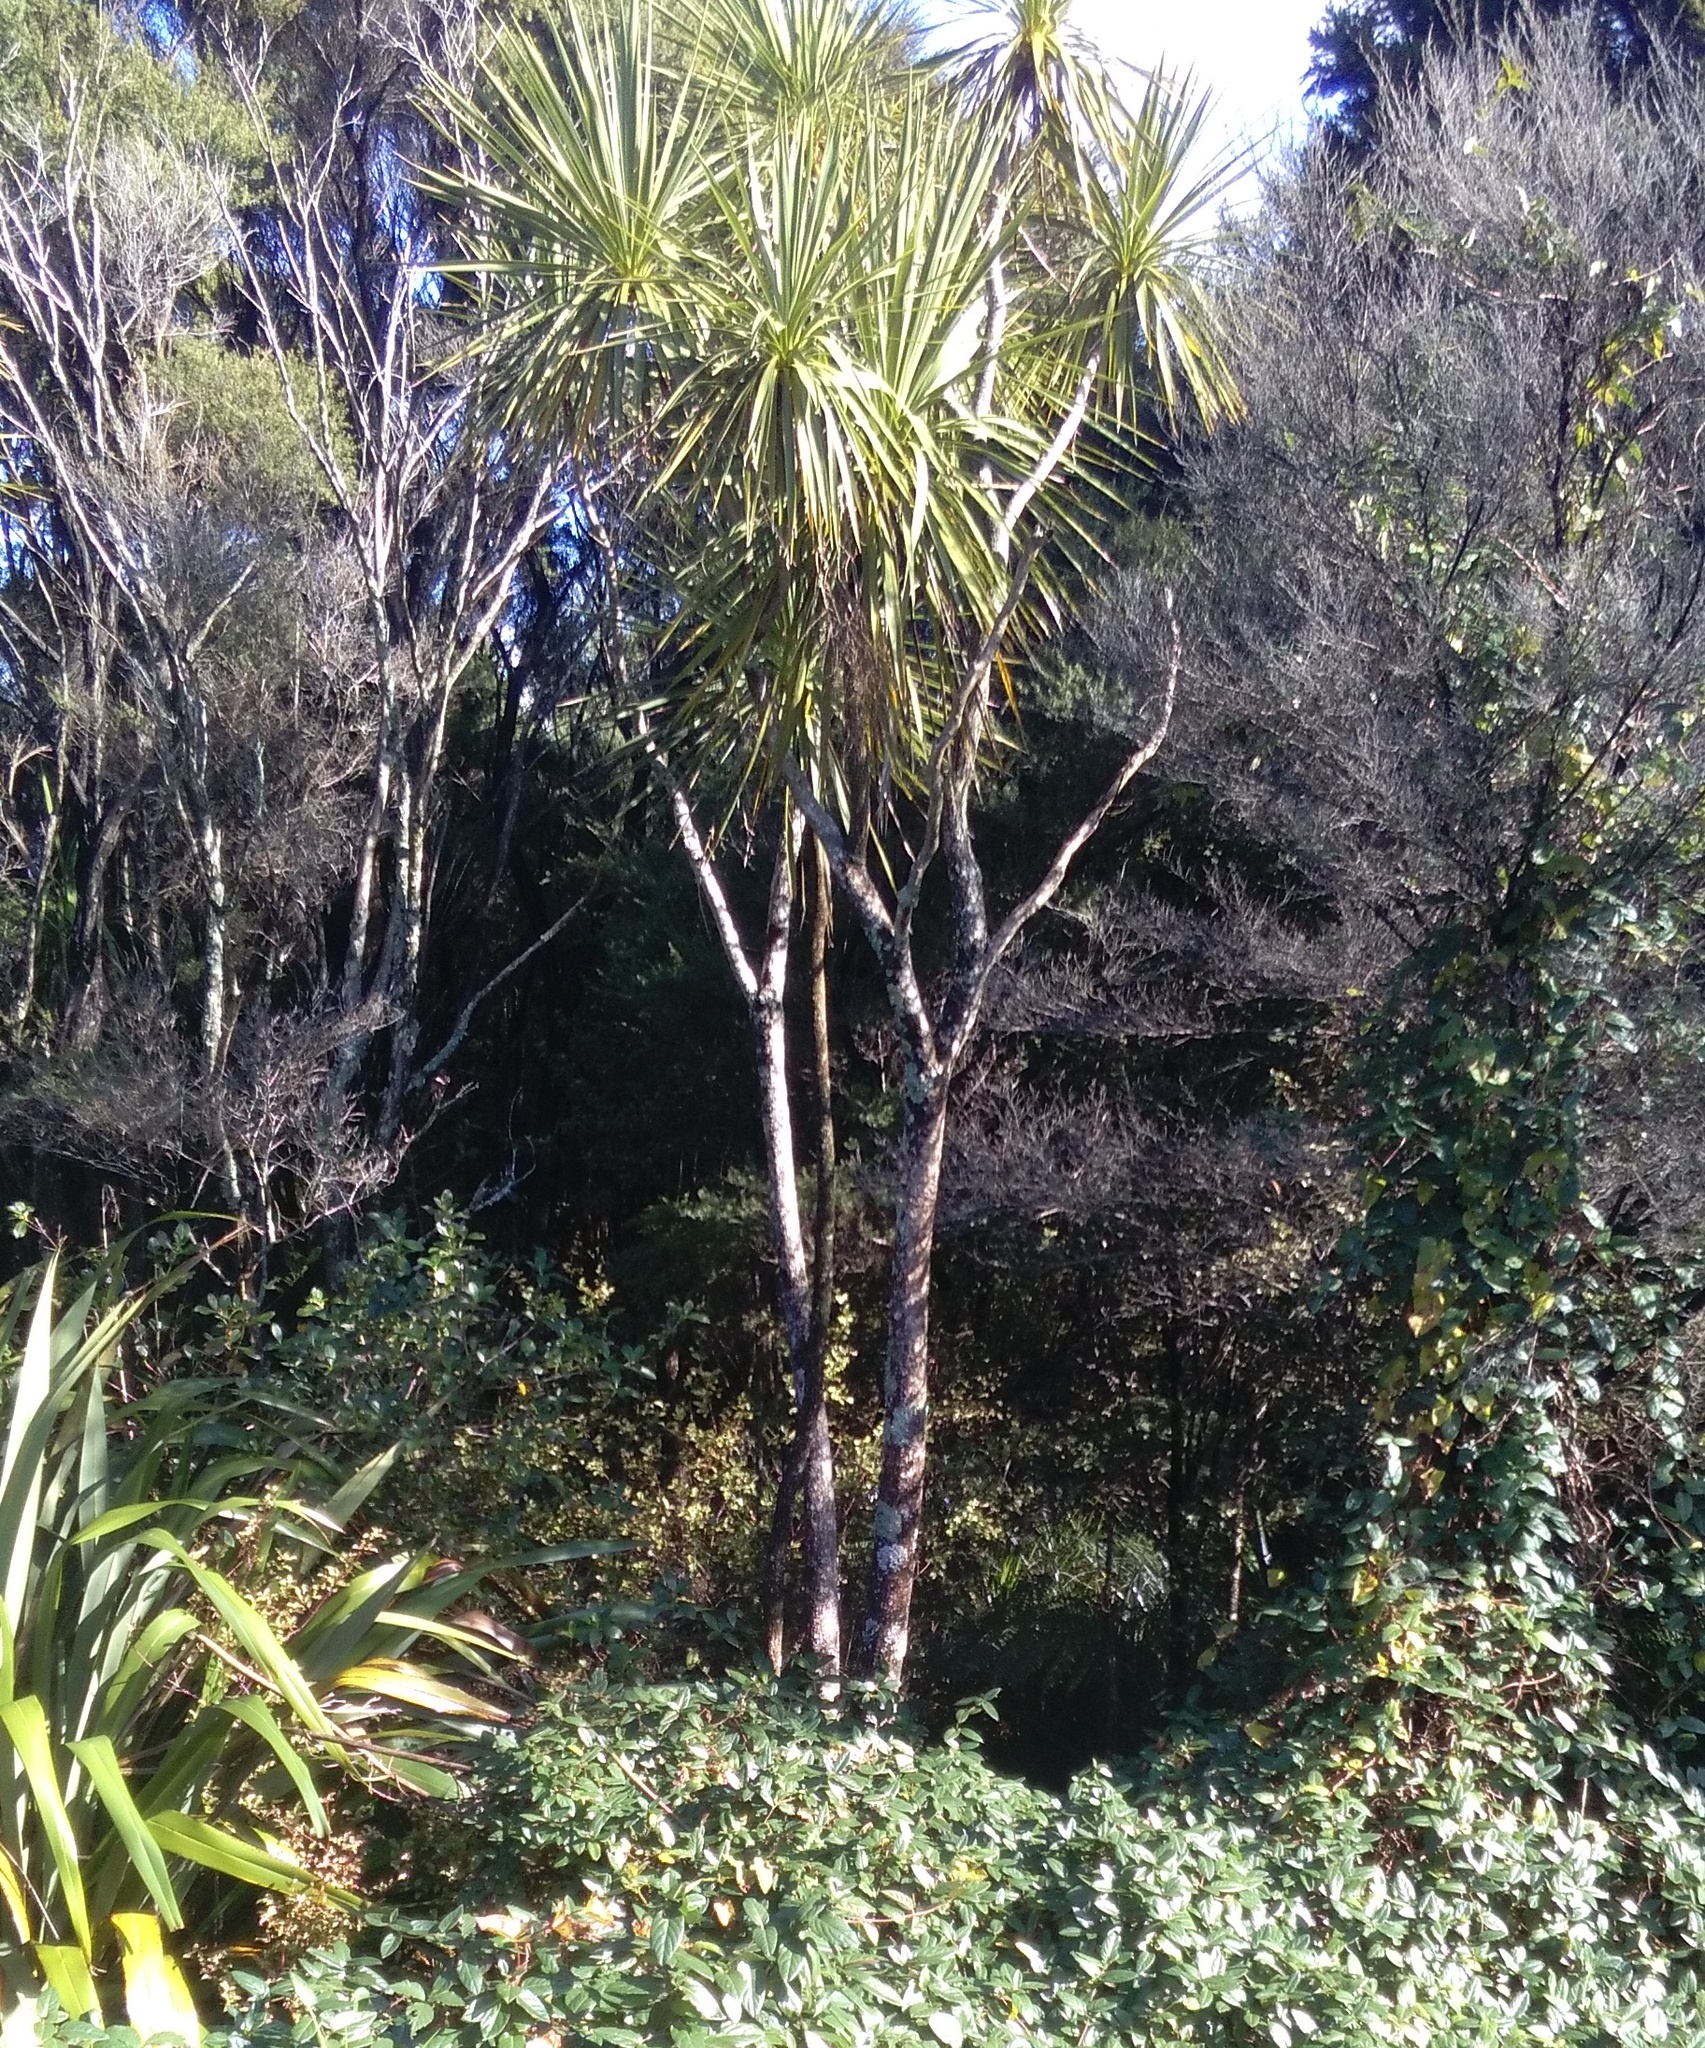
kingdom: Plantae
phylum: Tracheophyta
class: Liliopsida
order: Asparagales
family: Asparagaceae
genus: Cordyline
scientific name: Cordyline australis
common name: Cabbage-palm
